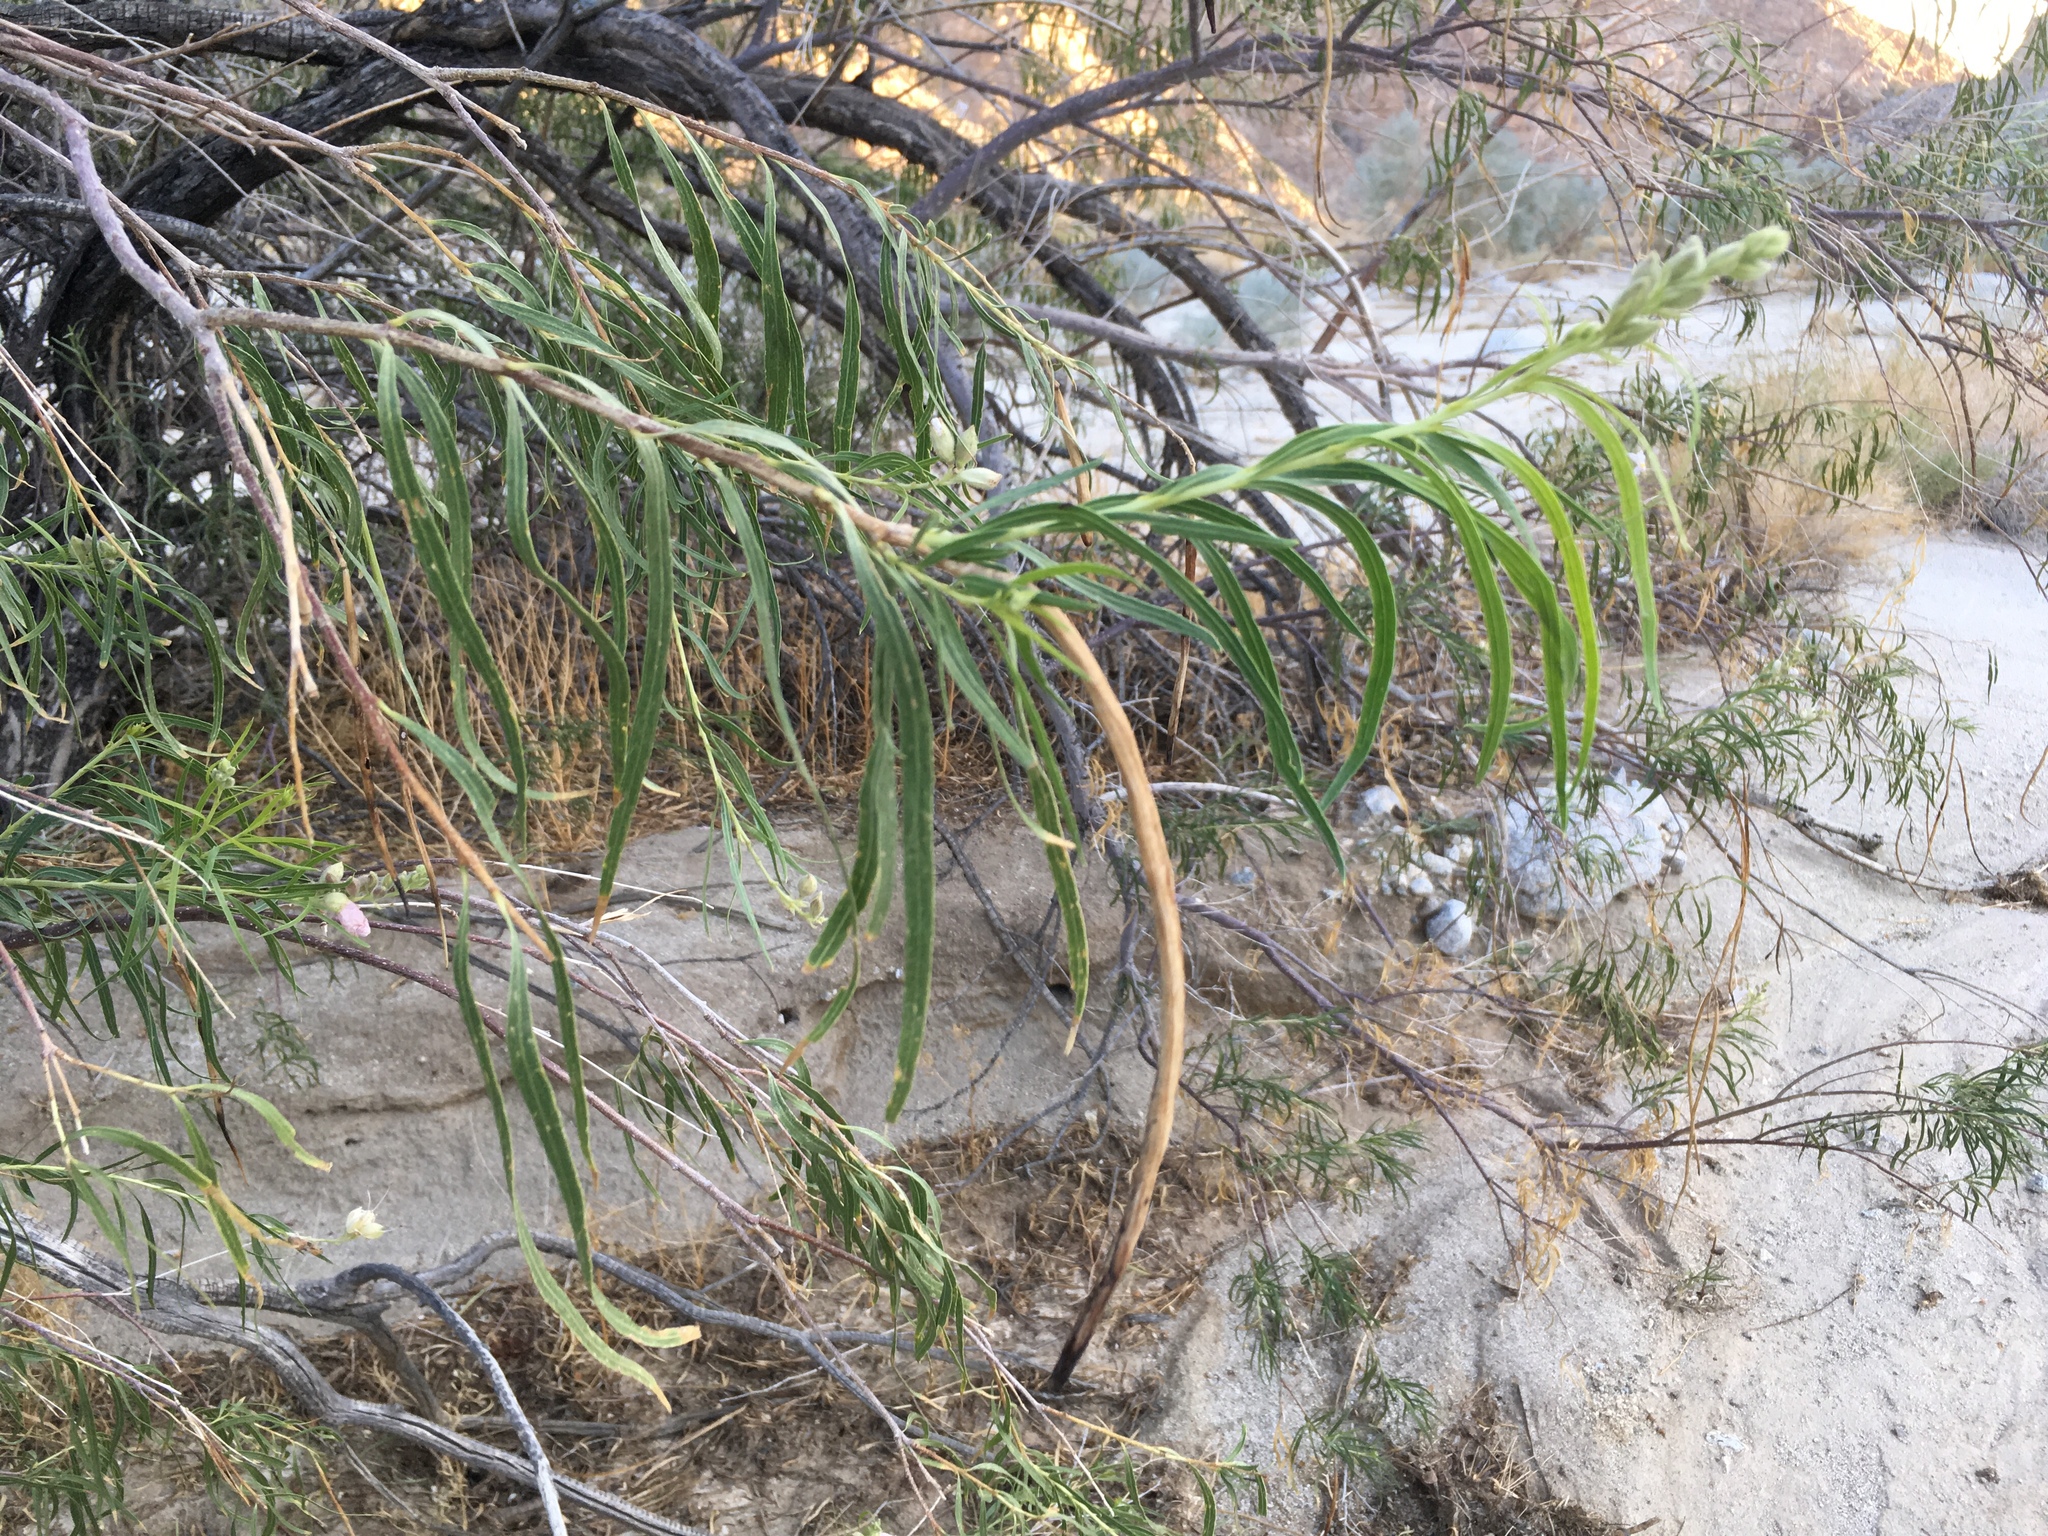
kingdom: Plantae
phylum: Tracheophyta
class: Magnoliopsida
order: Lamiales
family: Bignoniaceae
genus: Chilopsis
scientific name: Chilopsis linearis
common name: Desert-willow
